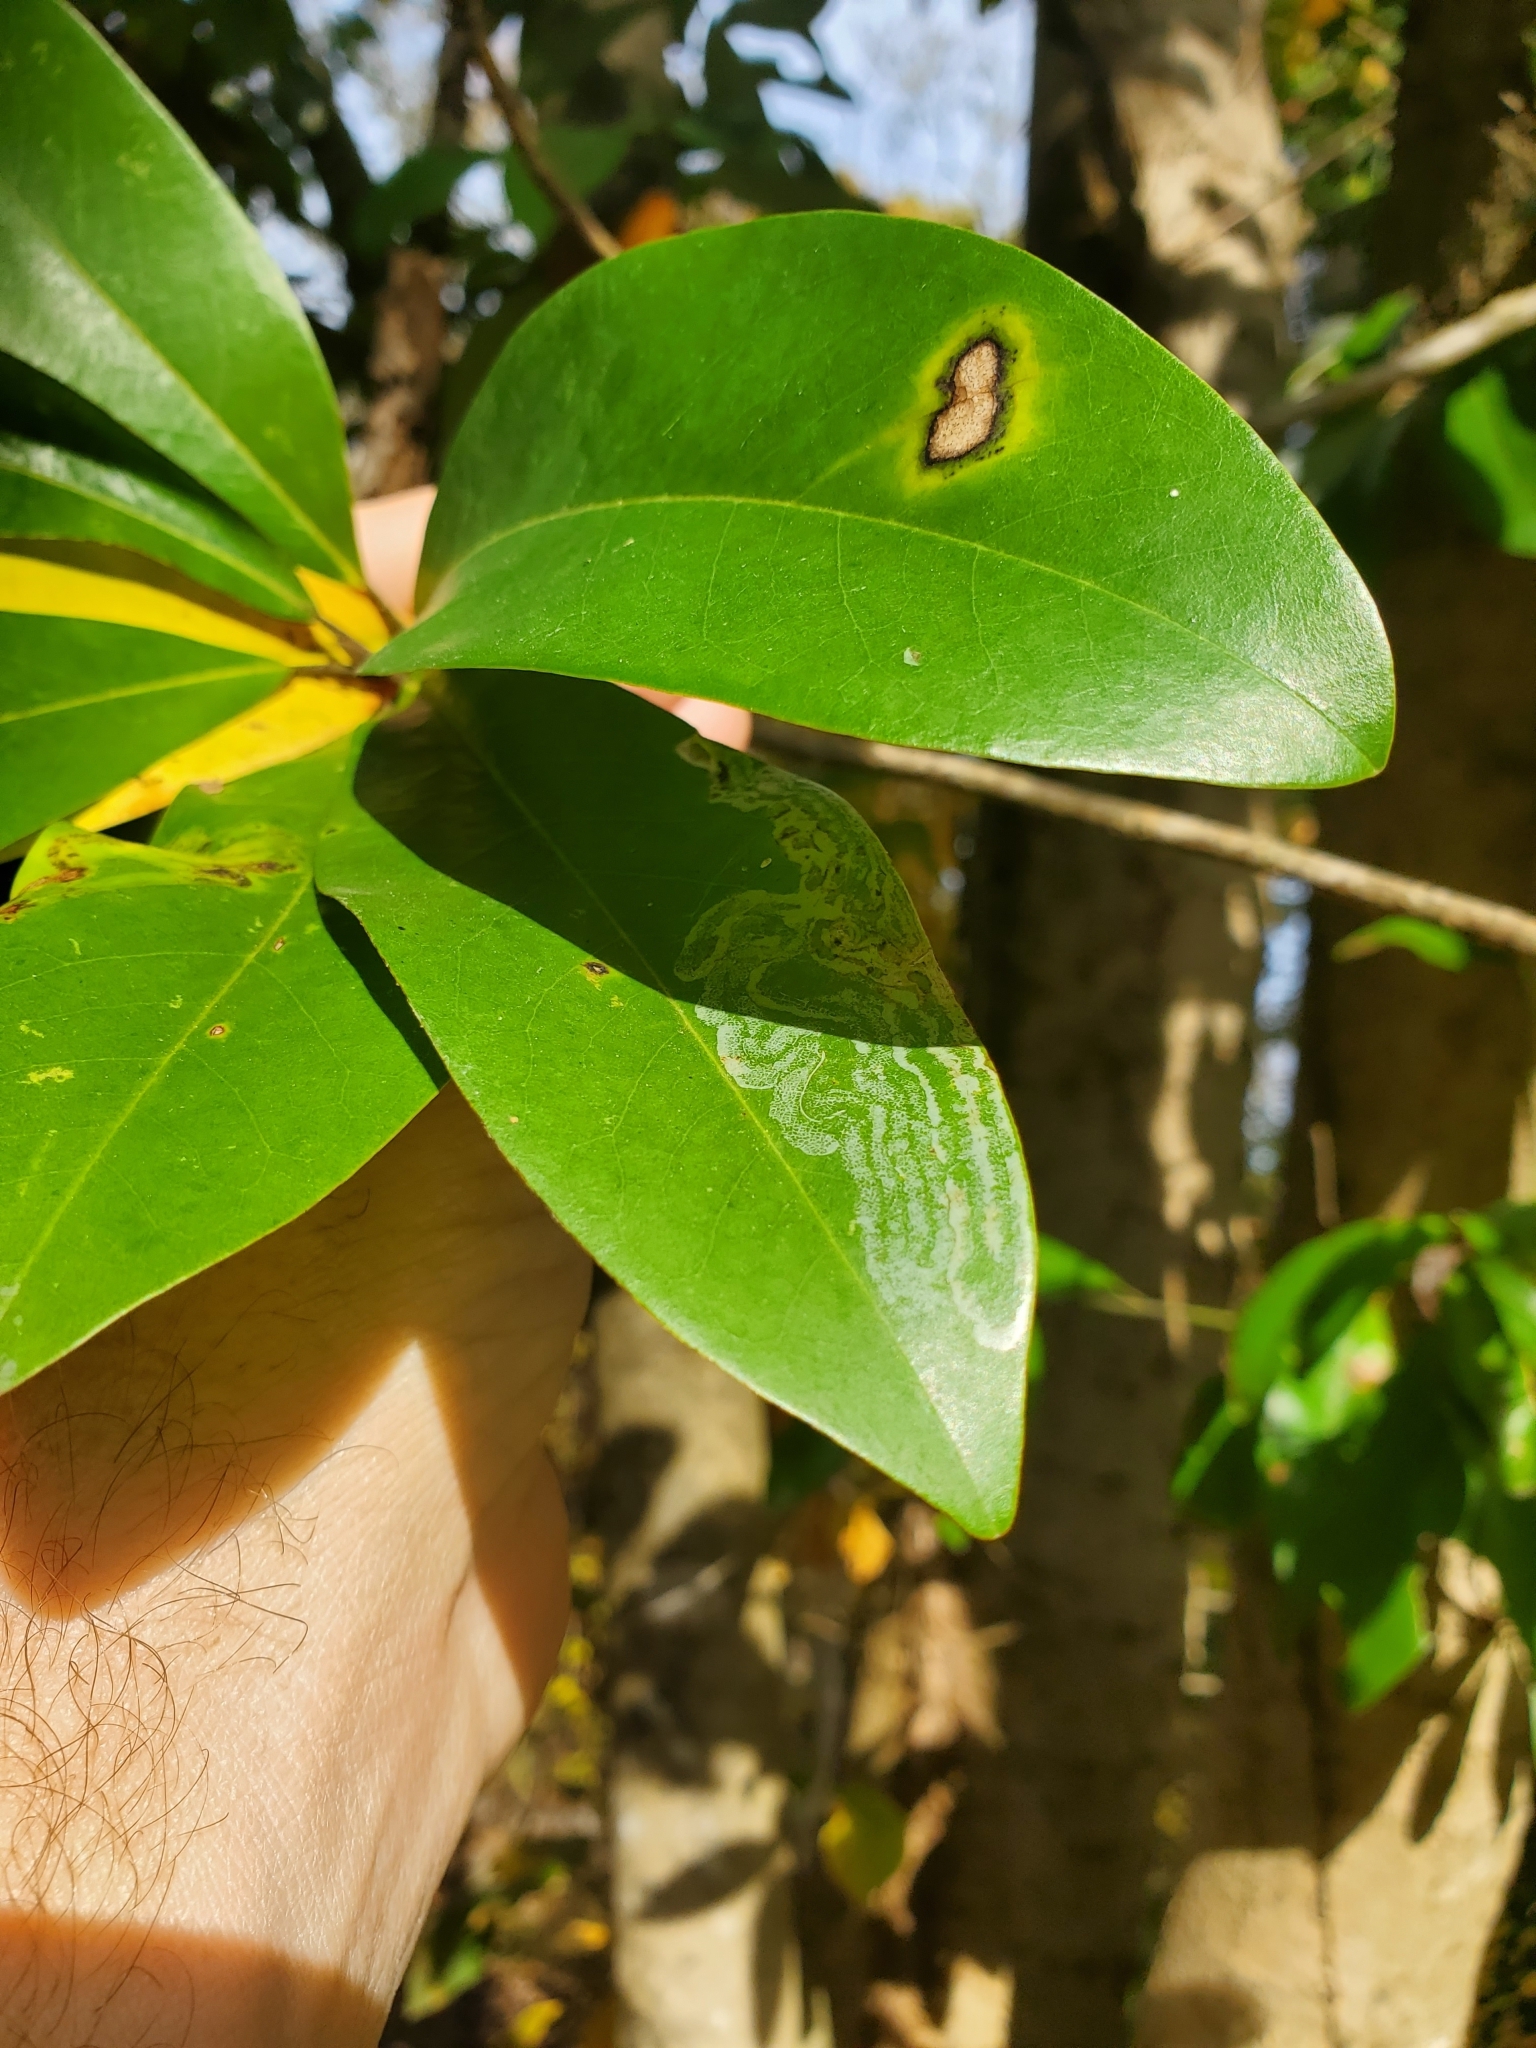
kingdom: Plantae
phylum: Tracheophyta
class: Magnoliopsida
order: Magnoliales
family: Magnoliaceae
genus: Magnolia
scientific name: Magnolia virginiana
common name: Swamp bay
